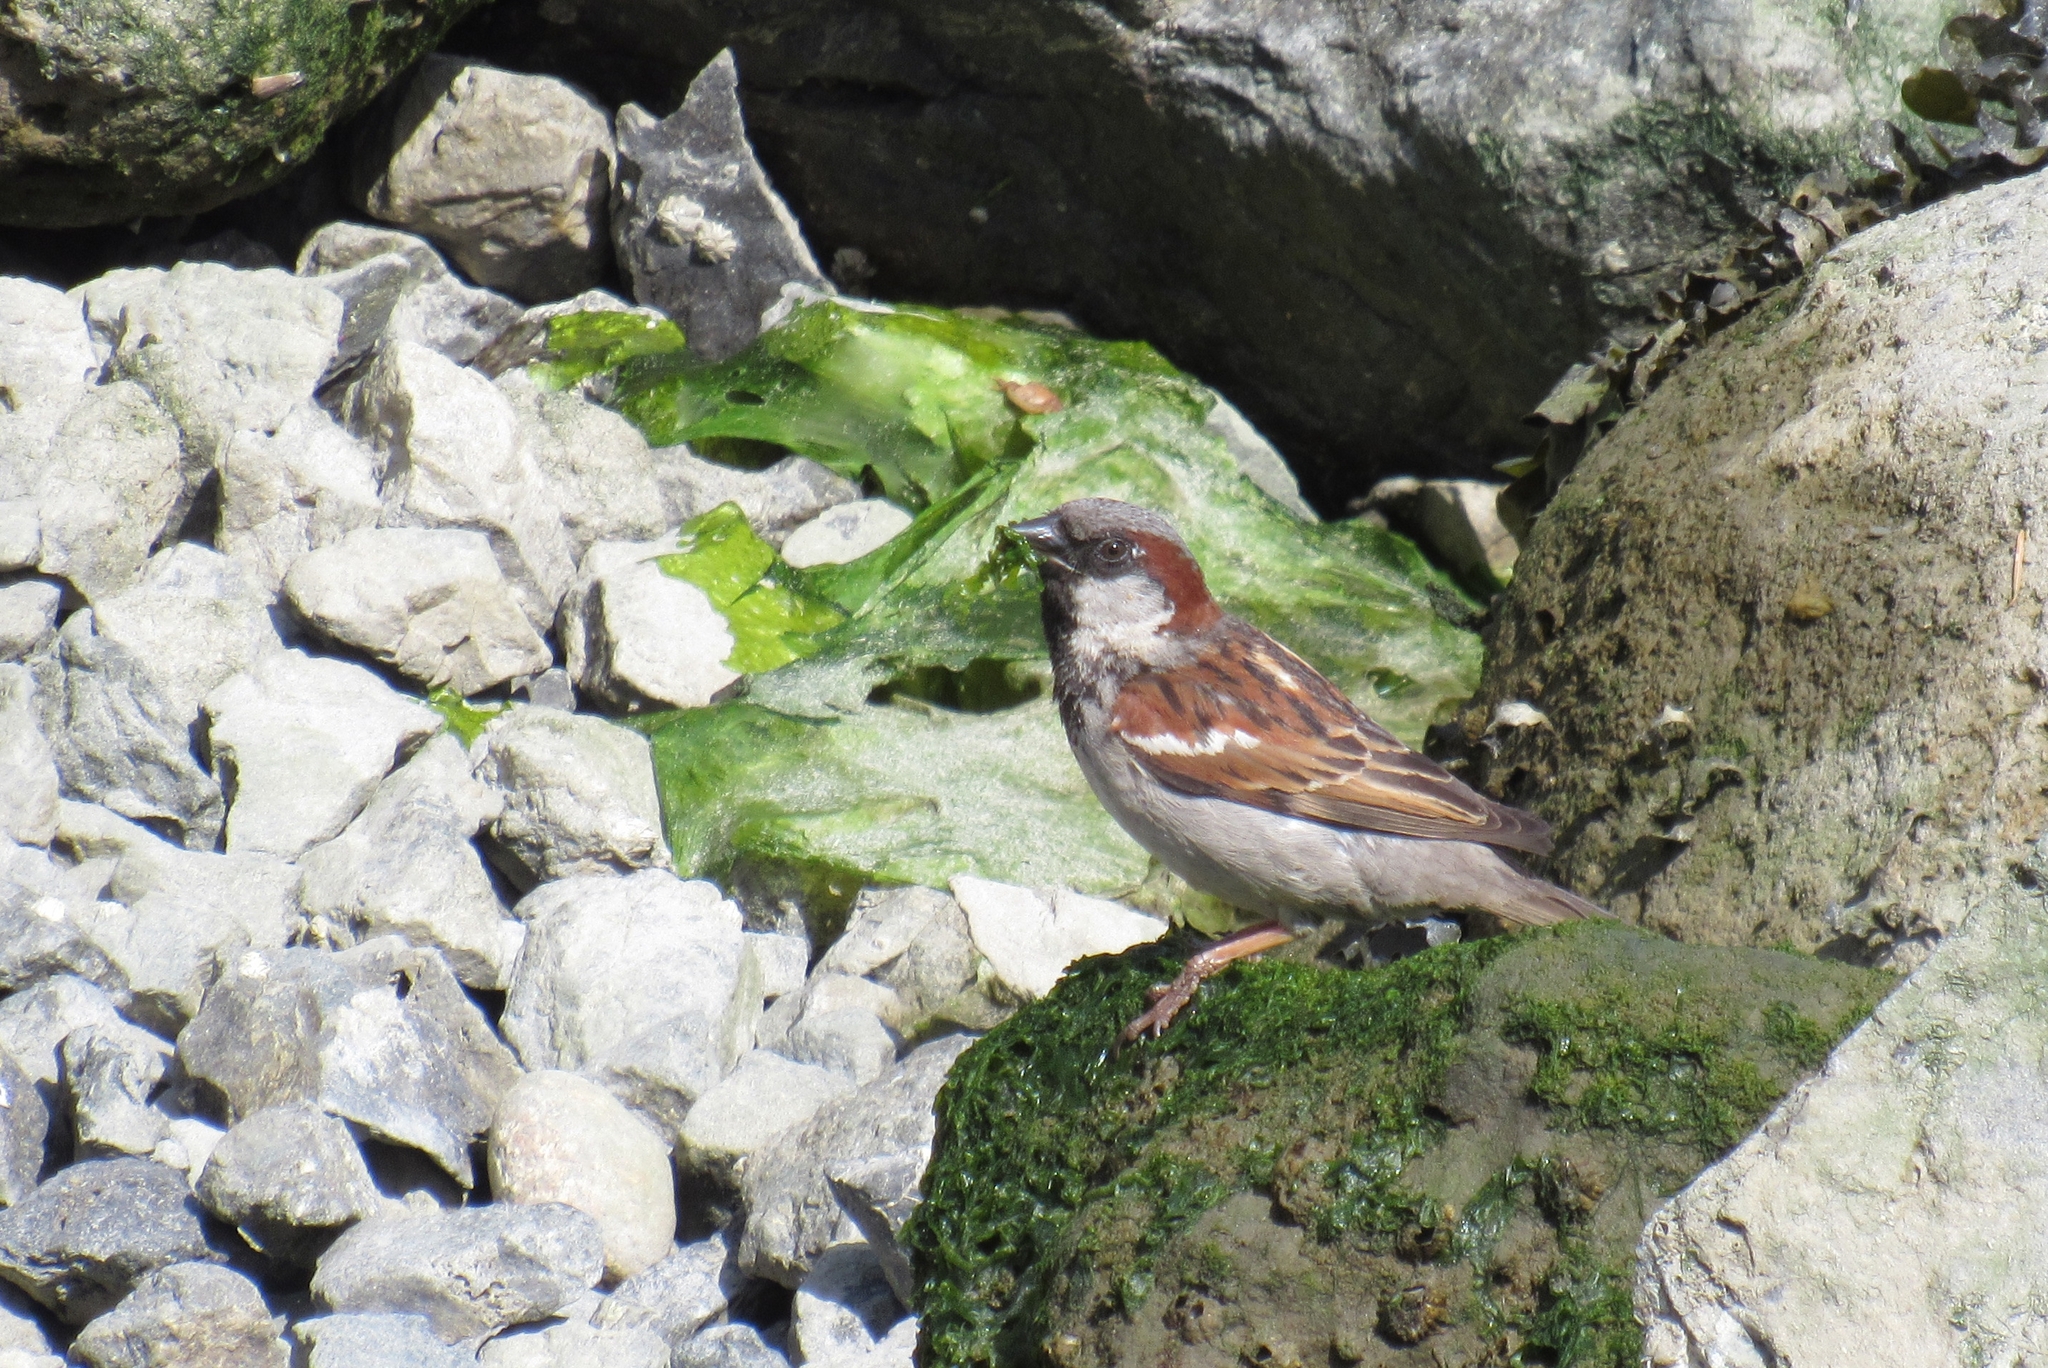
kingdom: Animalia
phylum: Chordata
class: Aves
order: Passeriformes
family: Passeridae
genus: Passer
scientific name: Passer domesticus
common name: House sparrow
